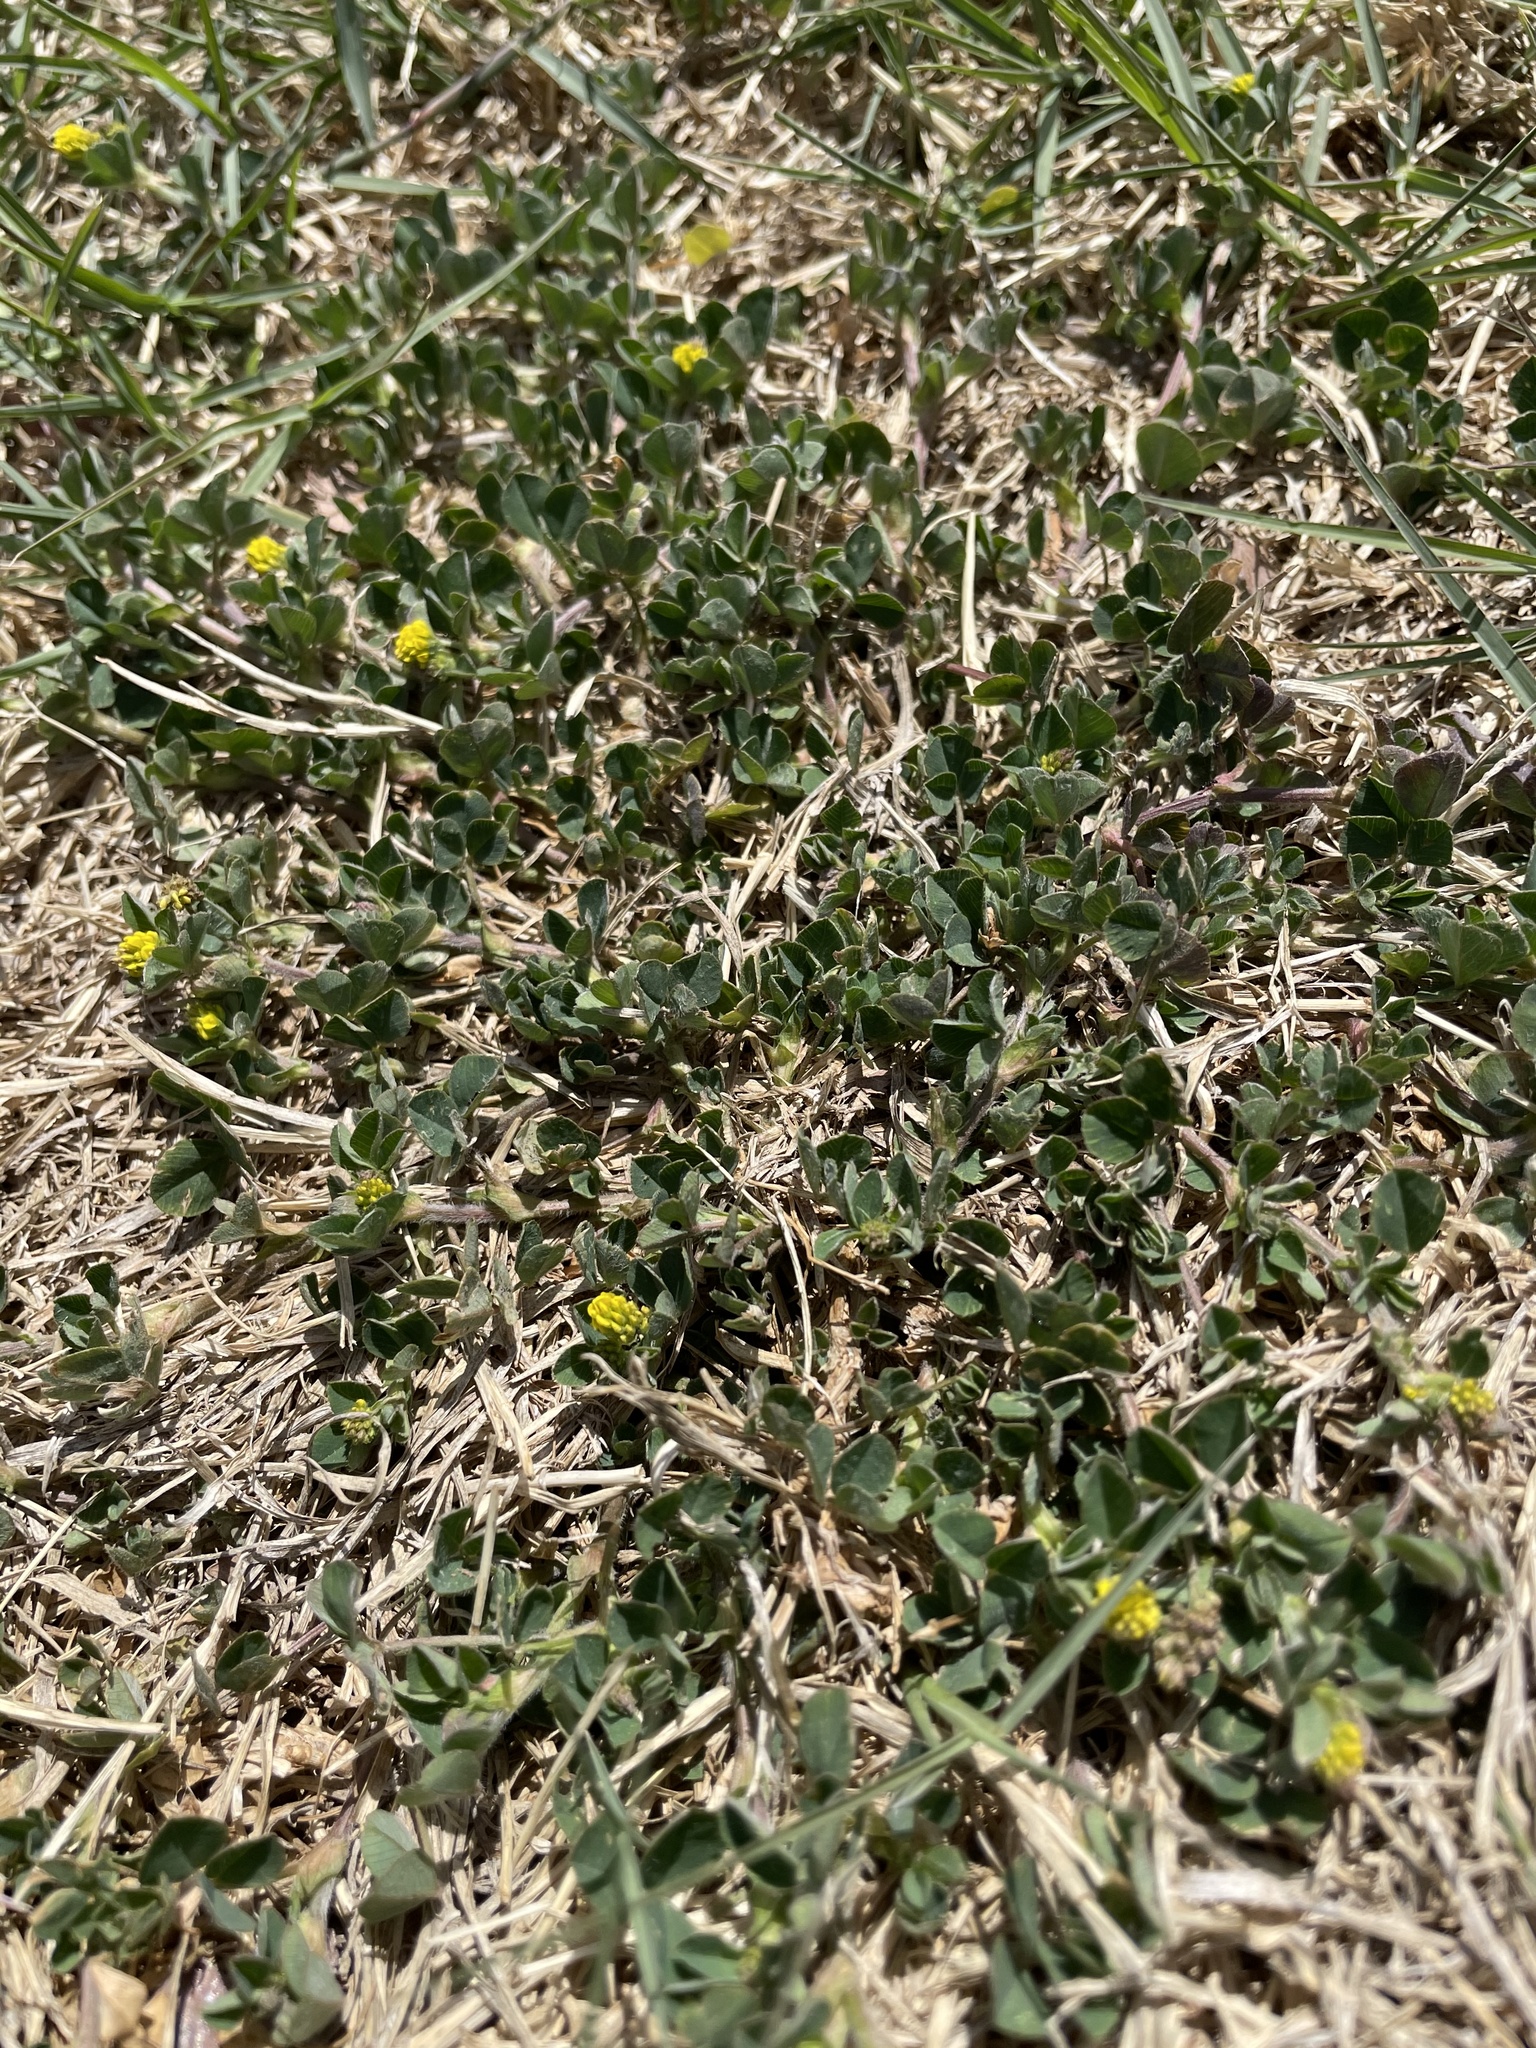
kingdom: Plantae
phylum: Tracheophyta
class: Magnoliopsida
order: Fabales
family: Fabaceae
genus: Medicago
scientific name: Medicago lupulina
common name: Black medick
